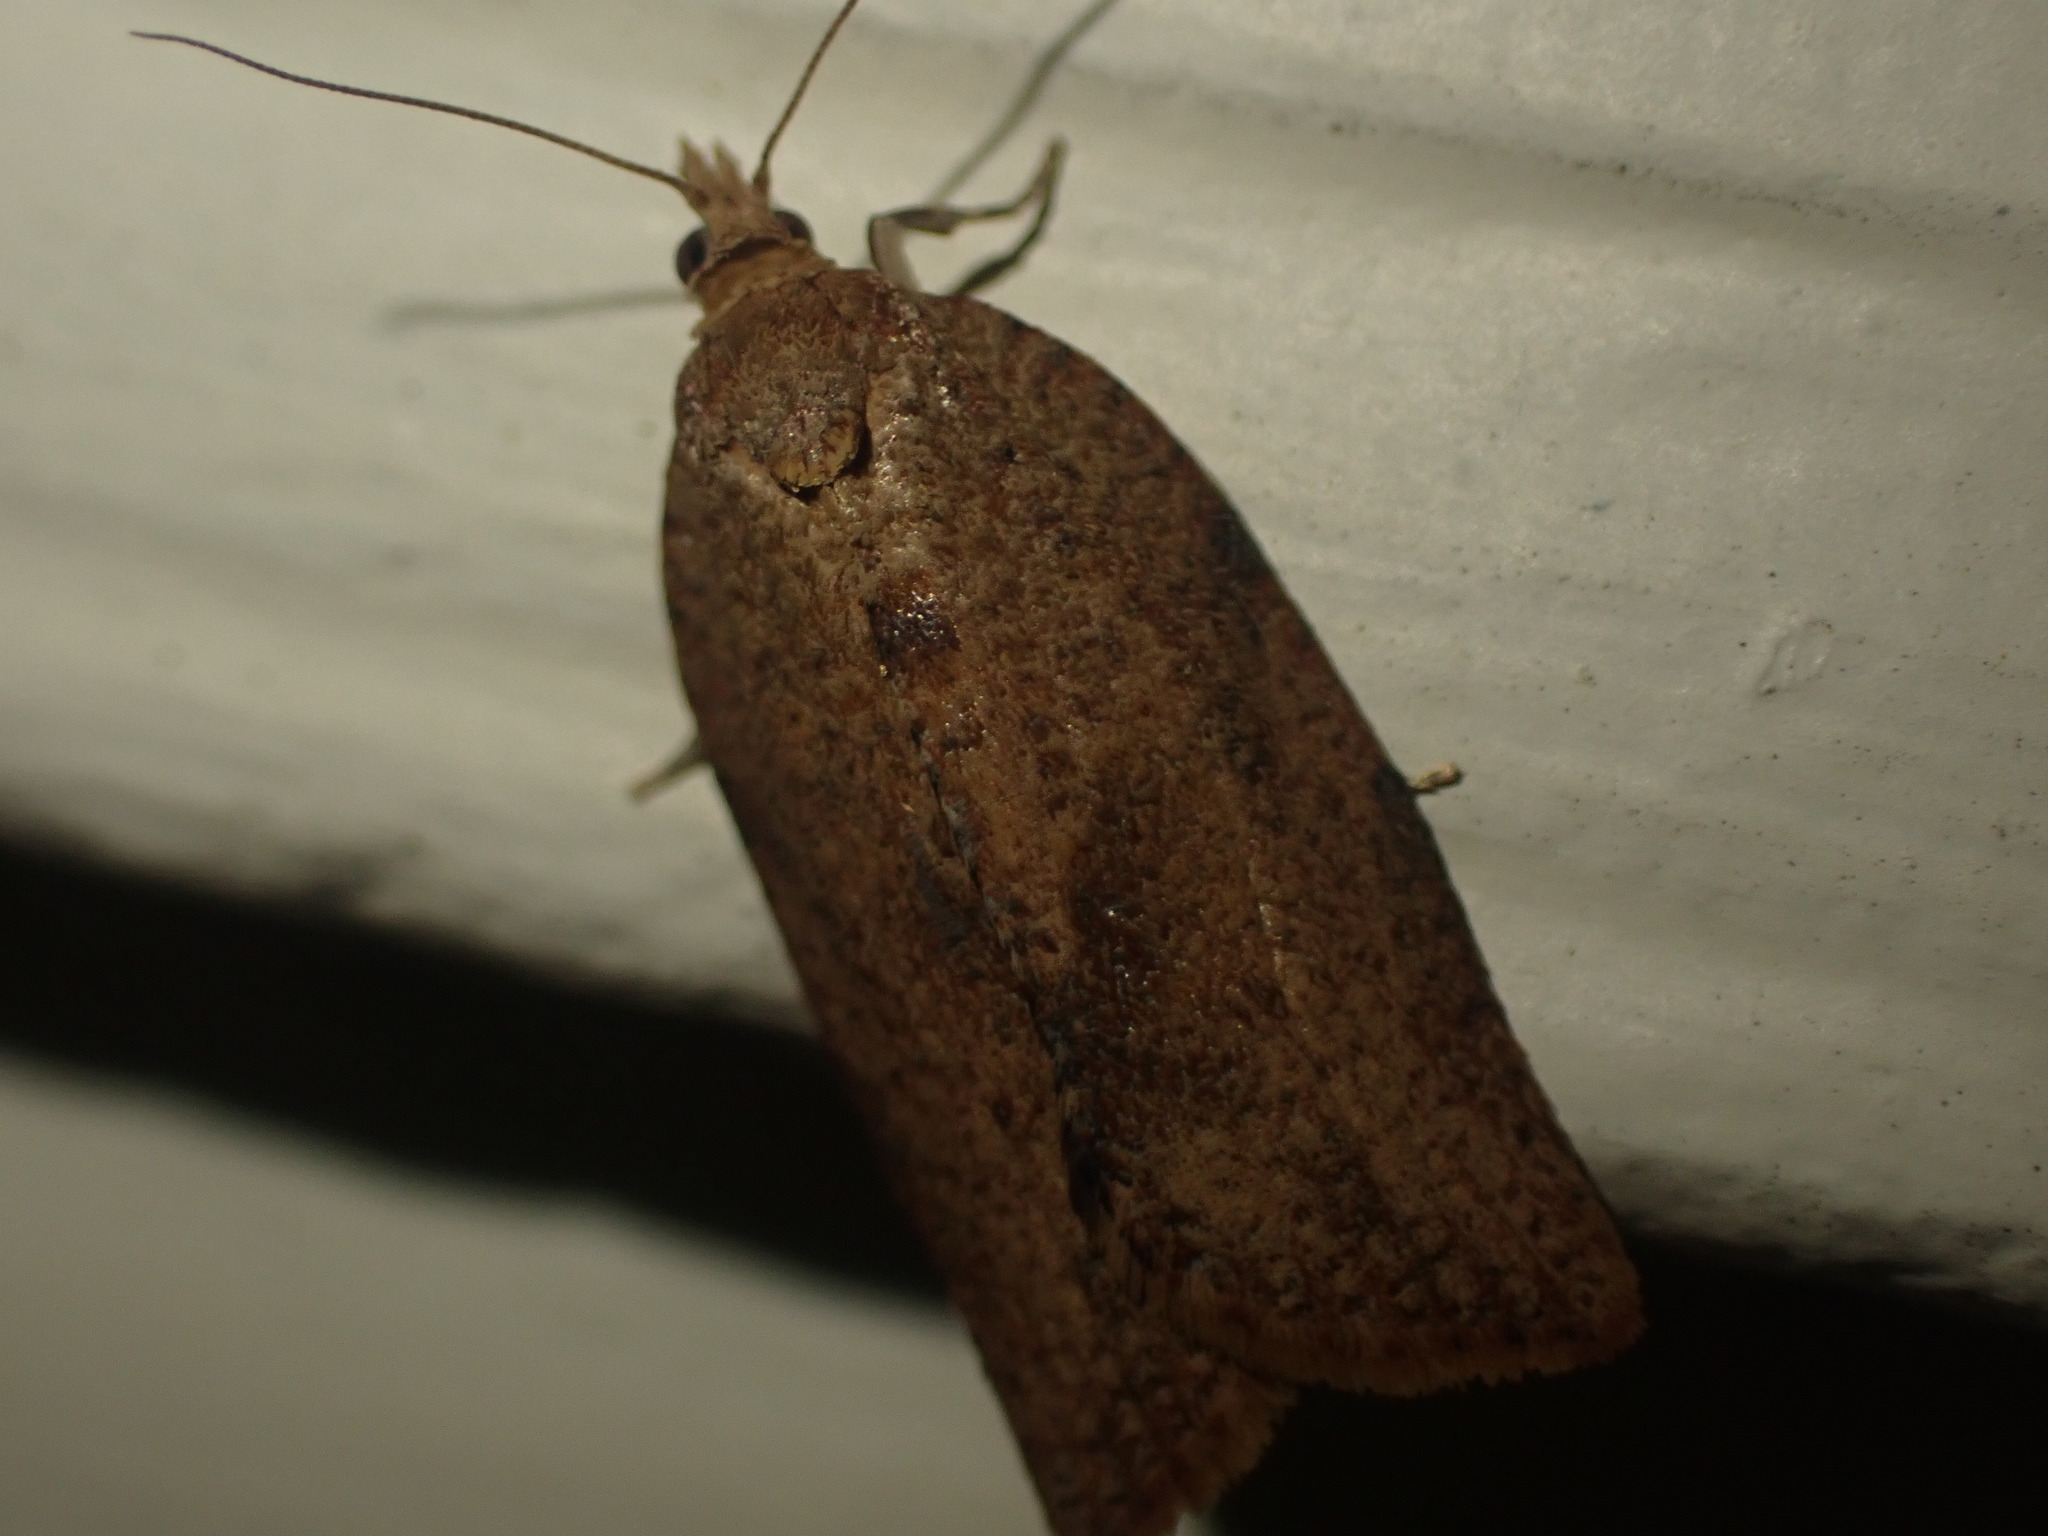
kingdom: Animalia
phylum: Arthropoda
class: Insecta
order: Lepidoptera
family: Tortricidae
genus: Epiphyas
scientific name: Epiphyas postvittana
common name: Light brown apple moth
